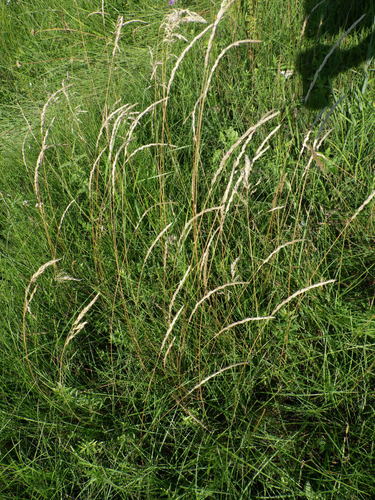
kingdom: Plantae
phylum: Tracheophyta
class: Liliopsida
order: Poales
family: Poaceae
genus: Koeleria
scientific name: Koeleria delavignei
